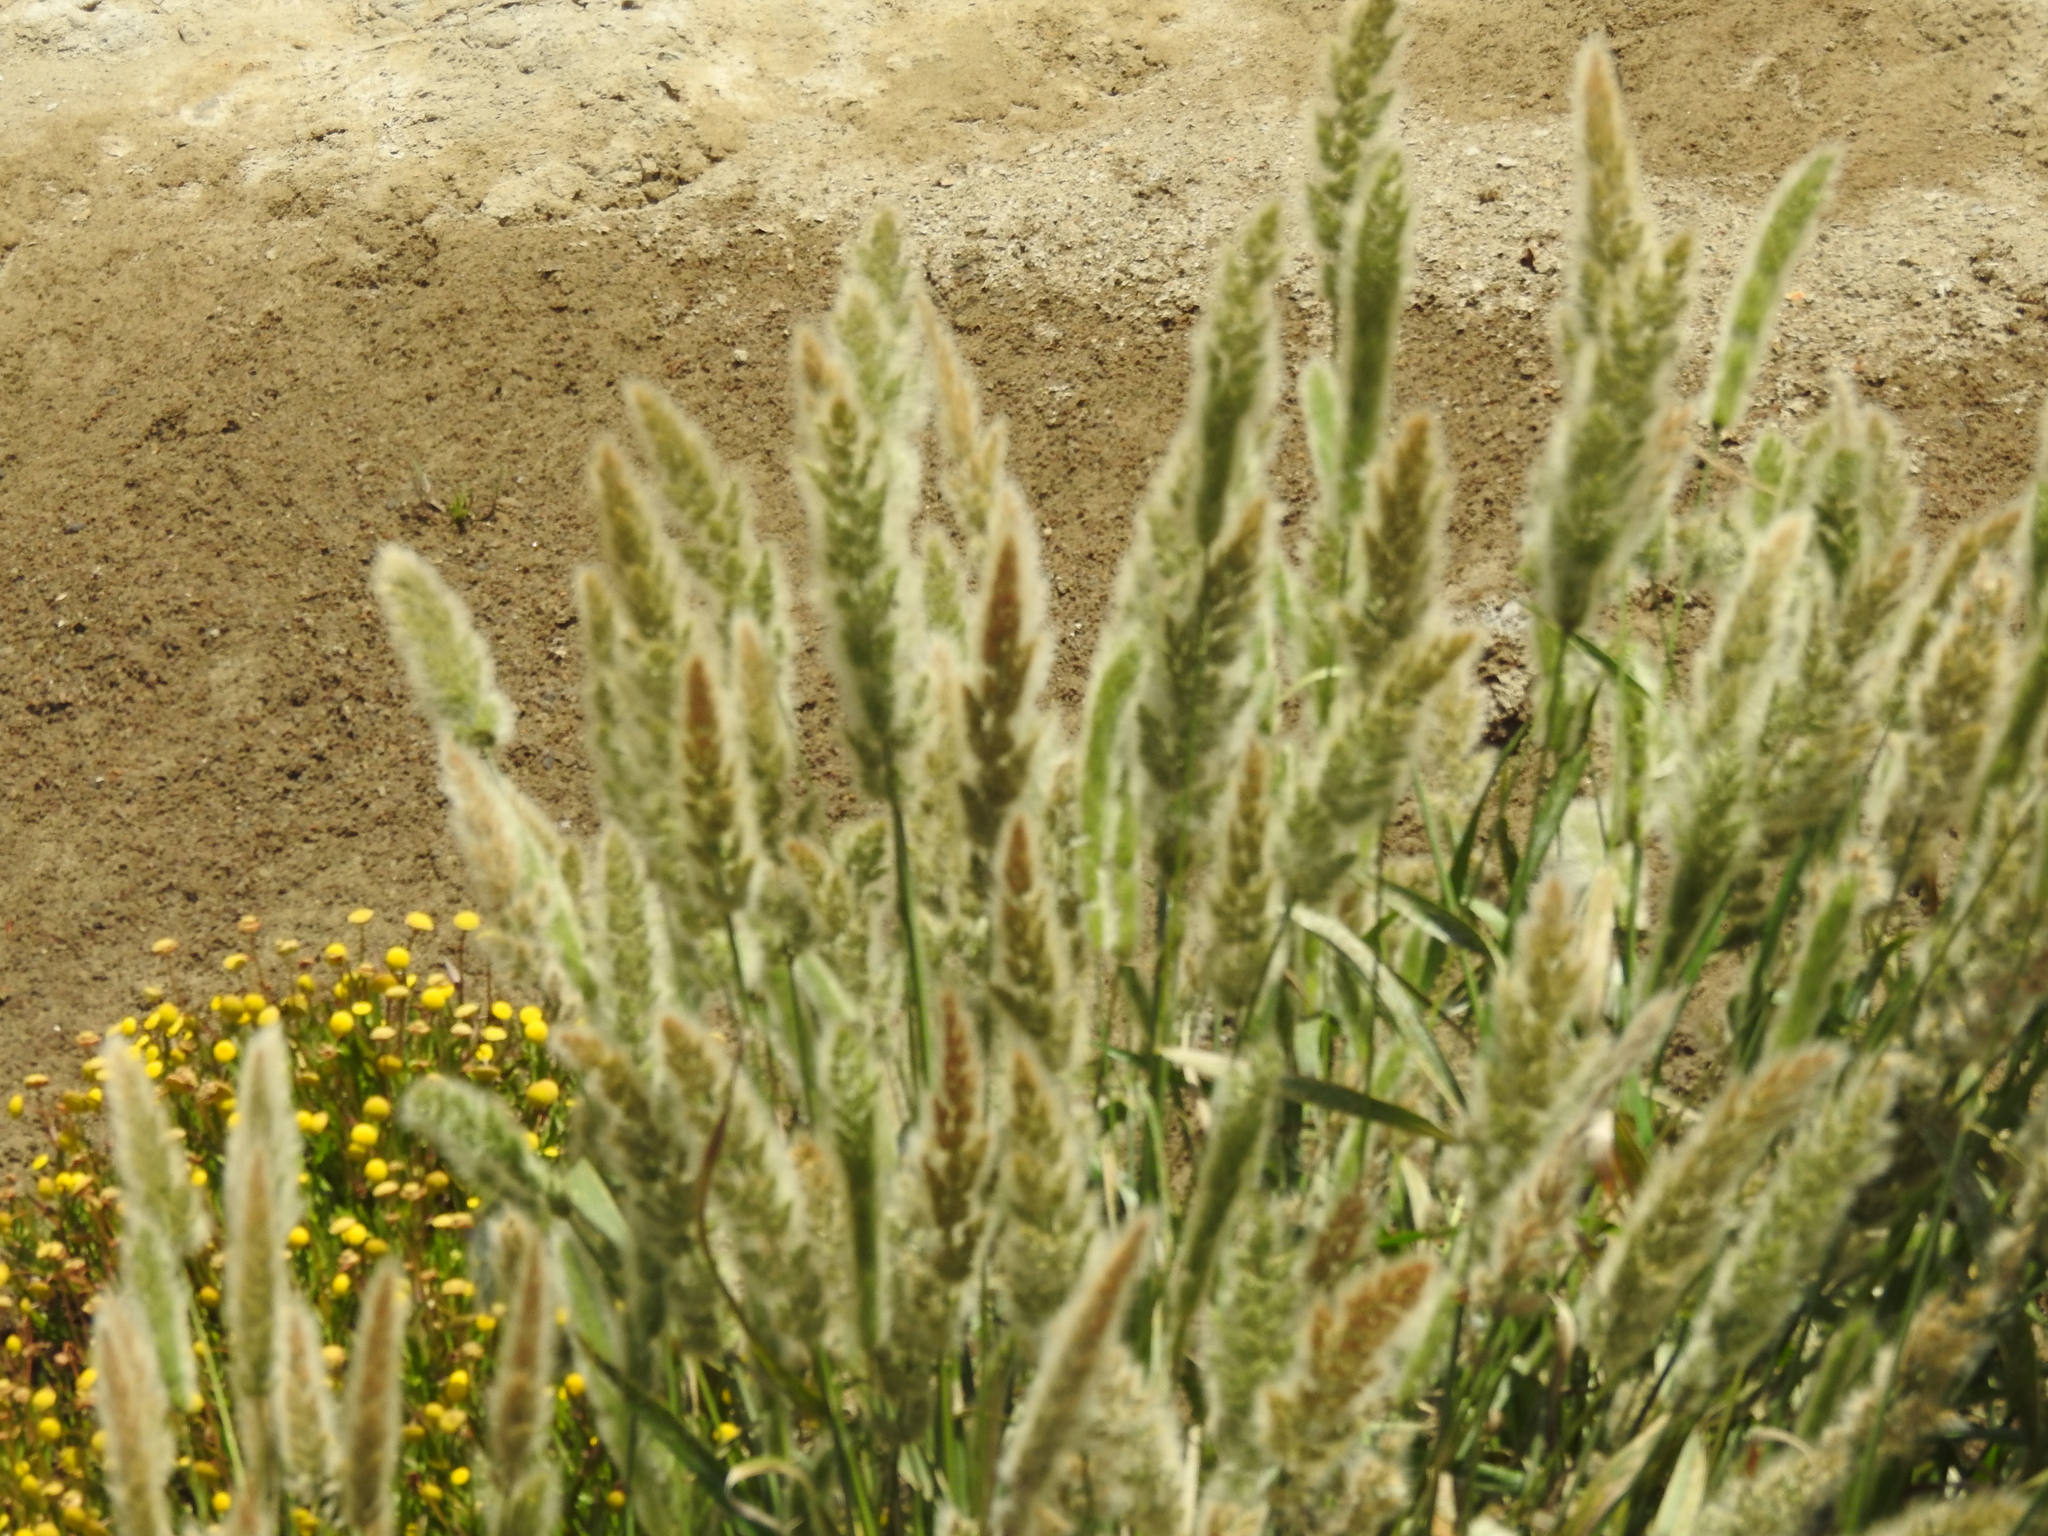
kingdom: Plantae
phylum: Tracheophyta
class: Liliopsida
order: Poales
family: Poaceae
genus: Polypogon
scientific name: Polypogon monspeliensis
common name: Annual rabbitsfoot grass
